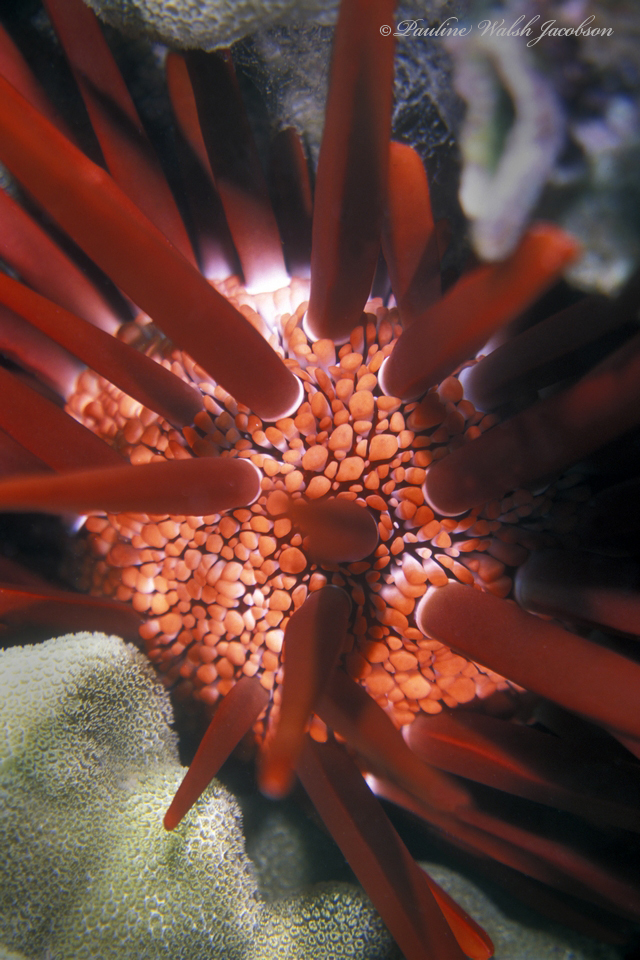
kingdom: Animalia
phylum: Echinodermata
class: Echinoidea
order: Camarodonta
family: Echinometridae
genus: Heterocentrotus
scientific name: Heterocentrotus mamillatus
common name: Slate pencil urchin
